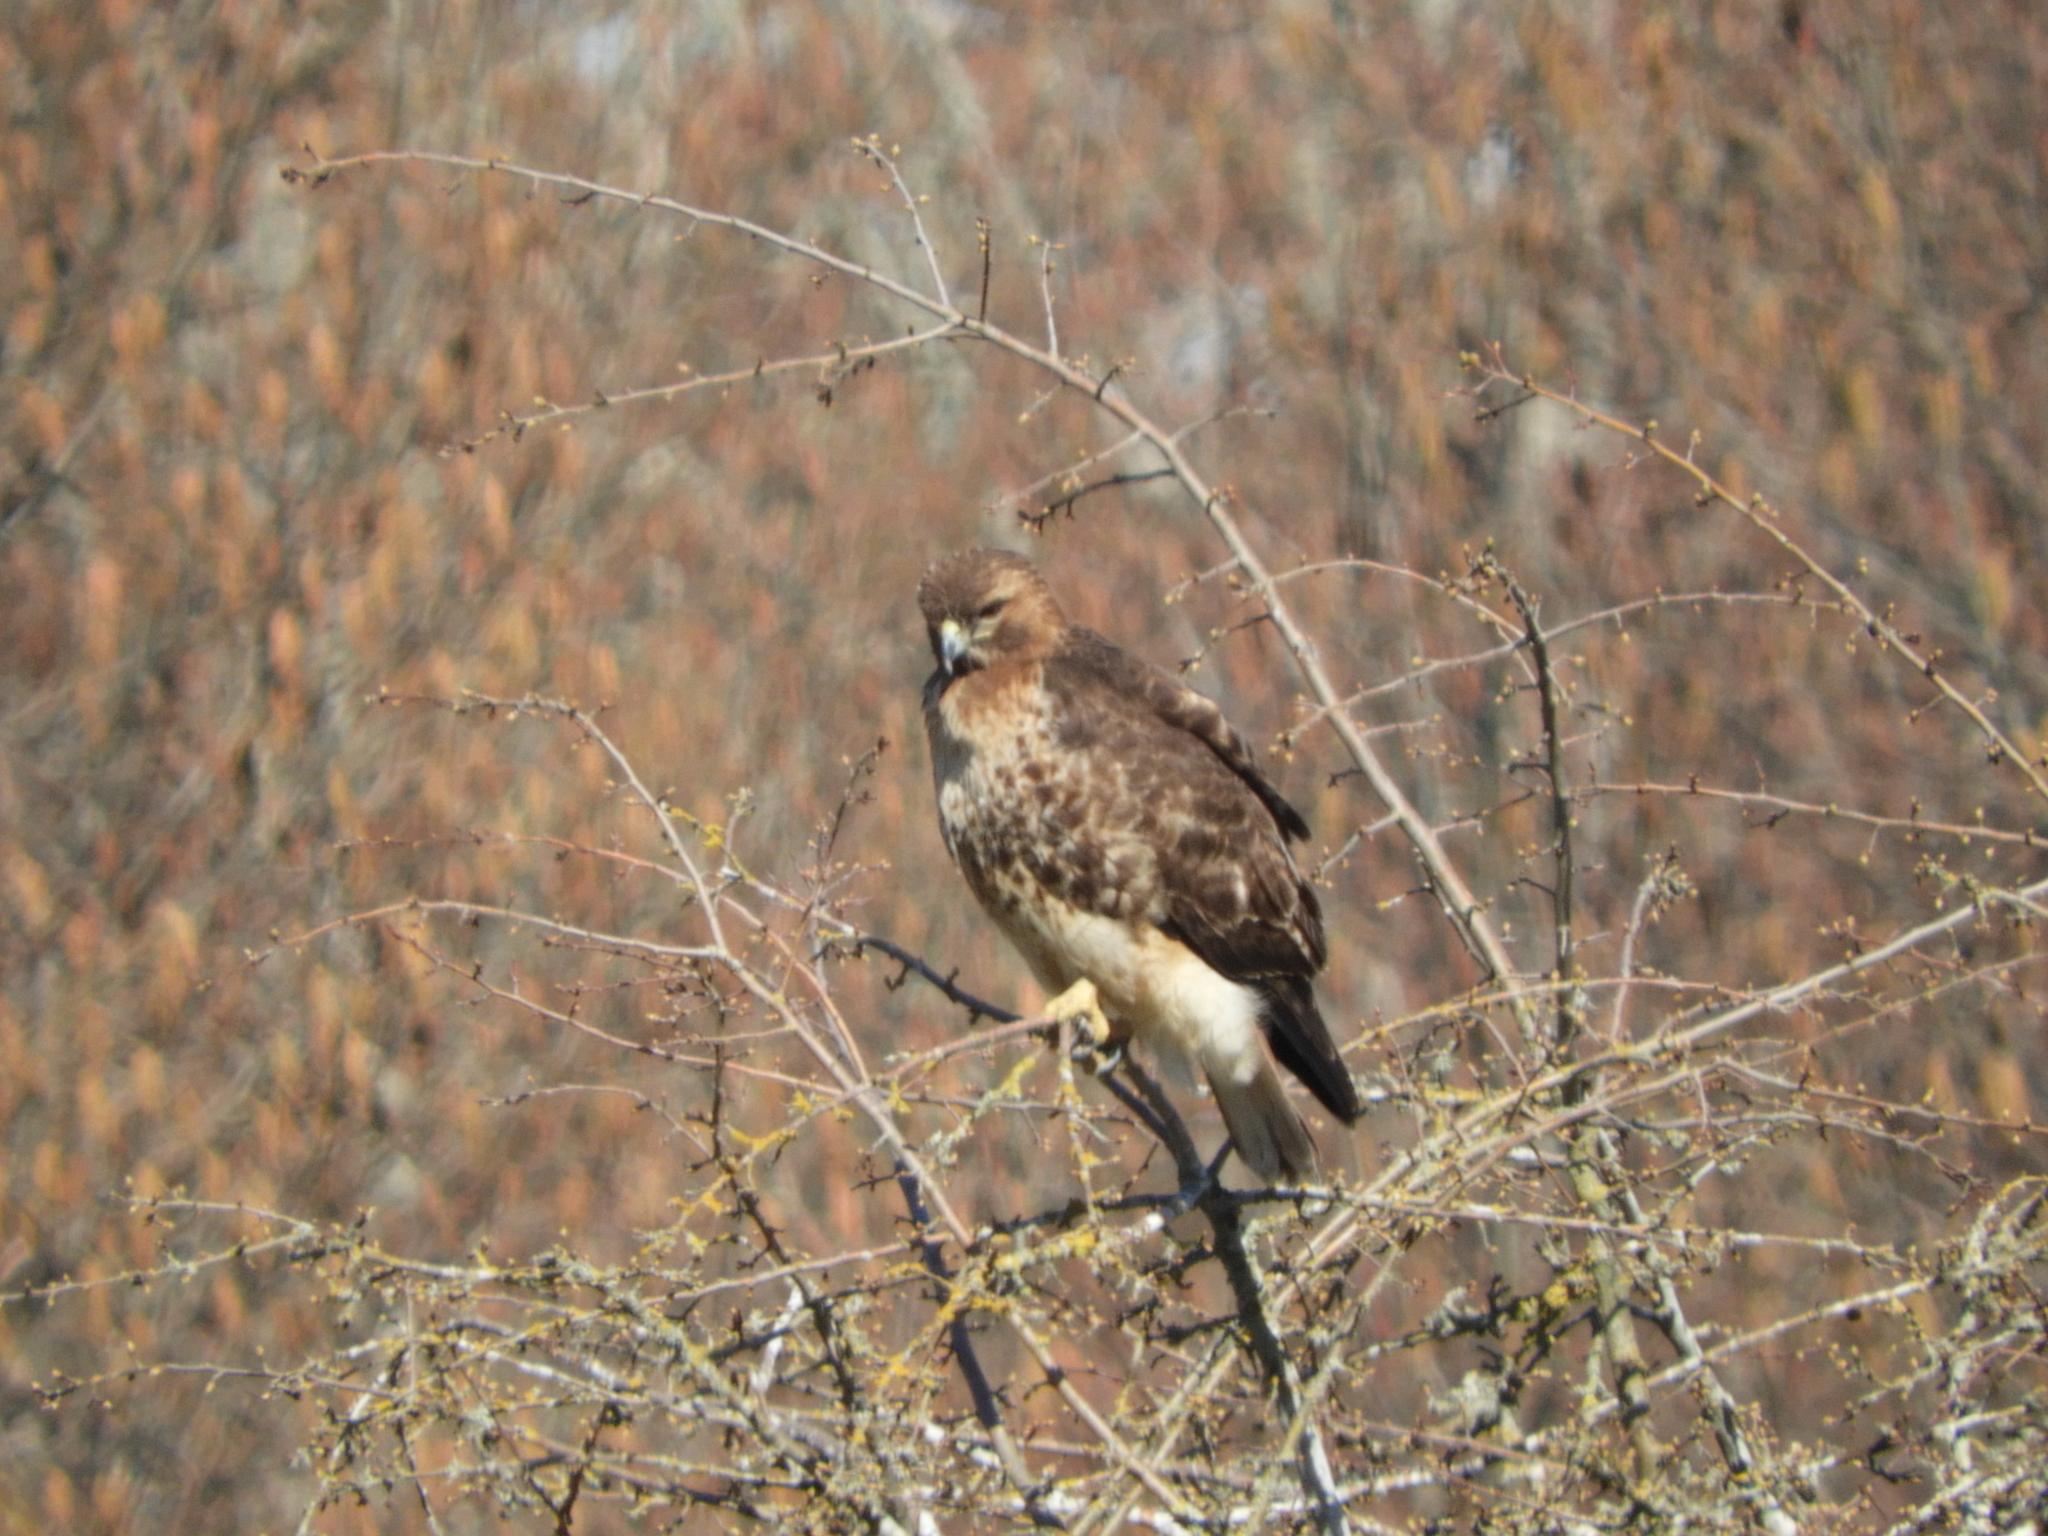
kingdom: Animalia
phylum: Chordata
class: Aves
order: Accipitriformes
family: Accipitridae
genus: Buteo
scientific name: Buteo jamaicensis
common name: Red-tailed hawk
